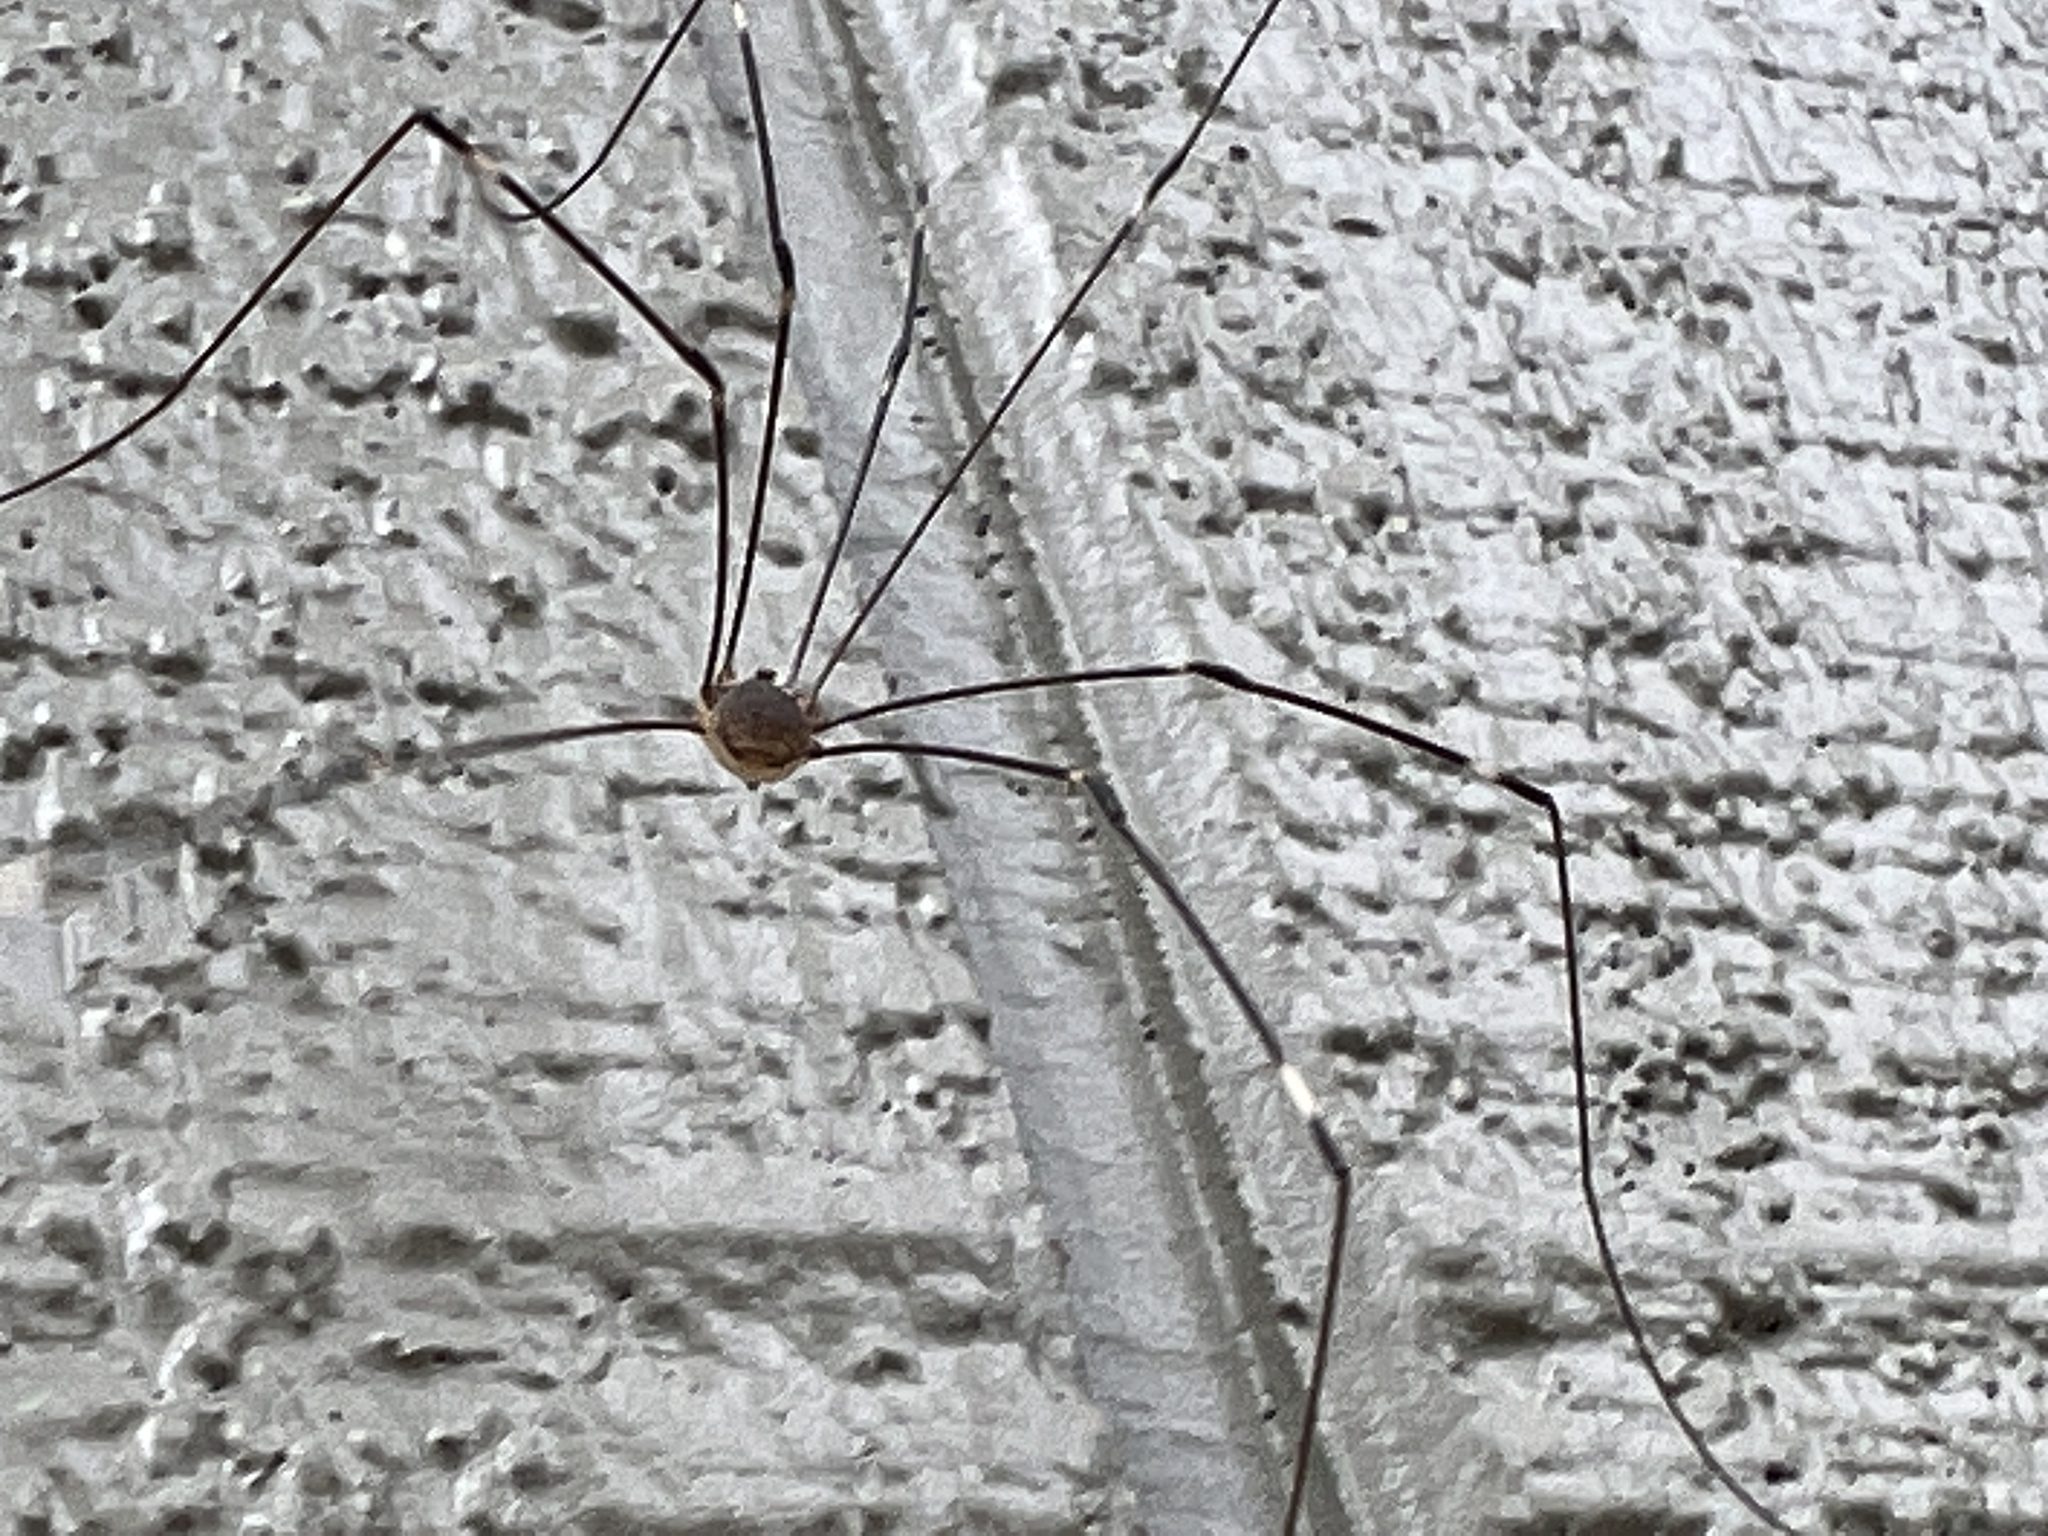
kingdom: Animalia
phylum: Arthropoda
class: Arachnida
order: Opiliones
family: Sclerosomatidae
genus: Leiobunum
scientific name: Leiobunum townsendi
